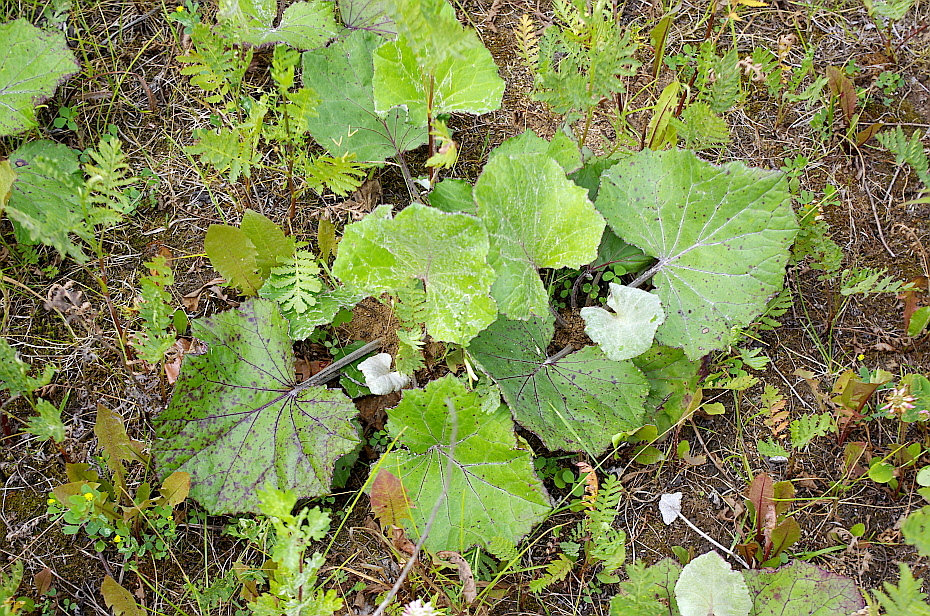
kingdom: Plantae
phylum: Tracheophyta
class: Magnoliopsida
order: Asterales
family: Asteraceae
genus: Tussilago
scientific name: Tussilago farfara
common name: Coltsfoot
